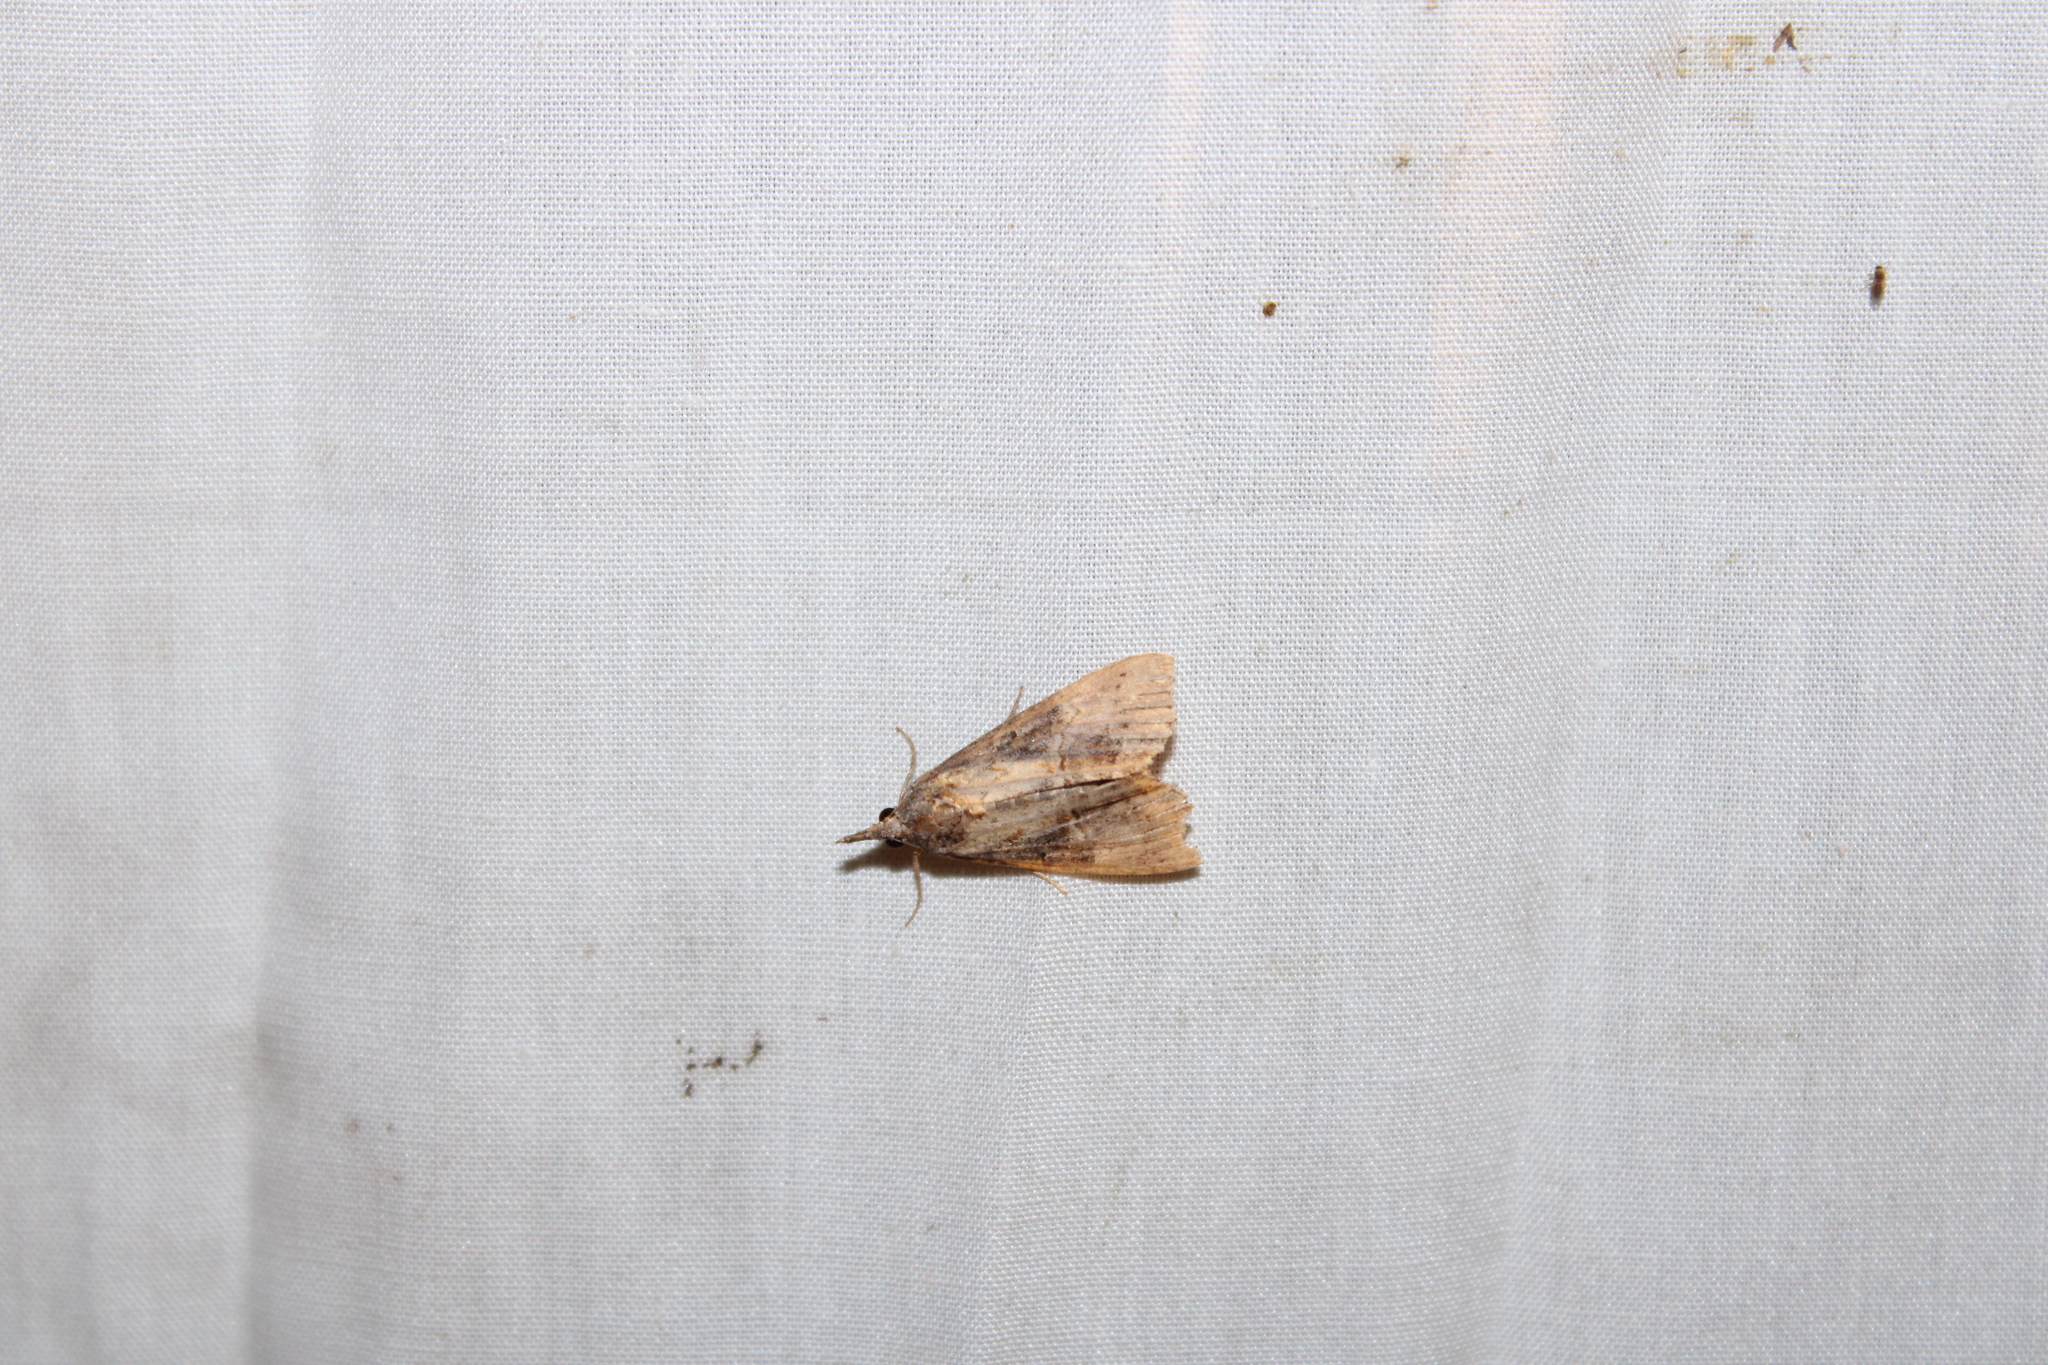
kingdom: Animalia
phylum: Arthropoda
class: Insecta
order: Lepidoptera
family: Erebidae
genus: Hypena
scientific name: Hypena scabra
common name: Green cloverworm
